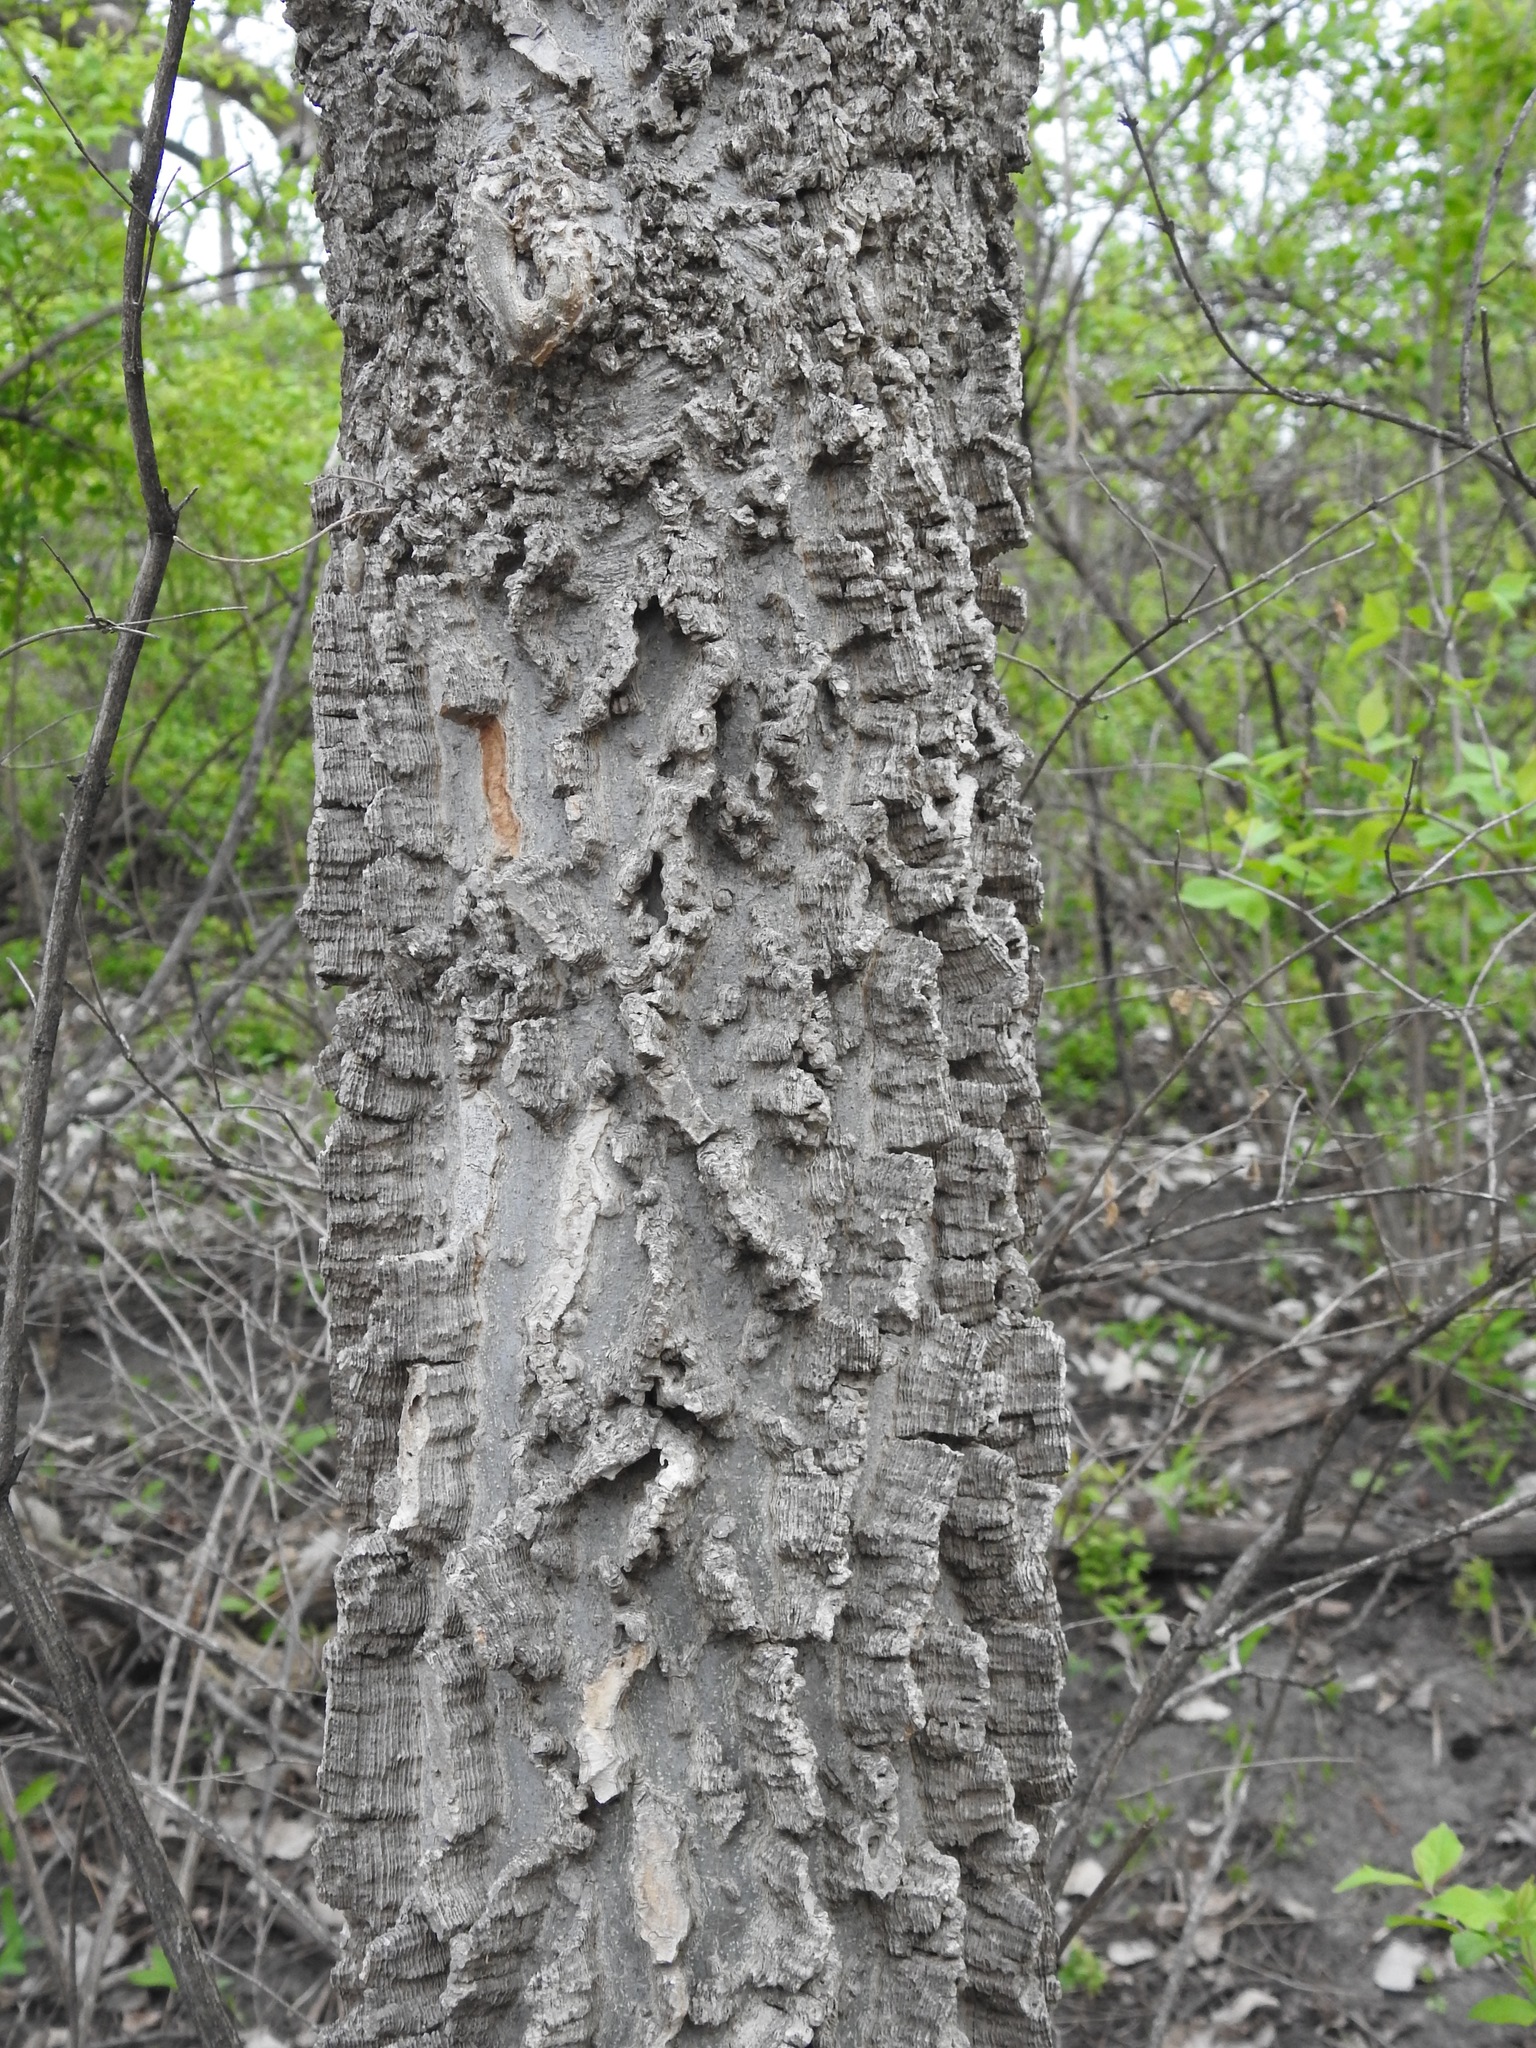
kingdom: Plantae
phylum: Tracheophyta
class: Magnoliopsida
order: Rosales
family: Cannabaceae
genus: Celtis
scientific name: Celtis occidentalis
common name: Common hackberry
